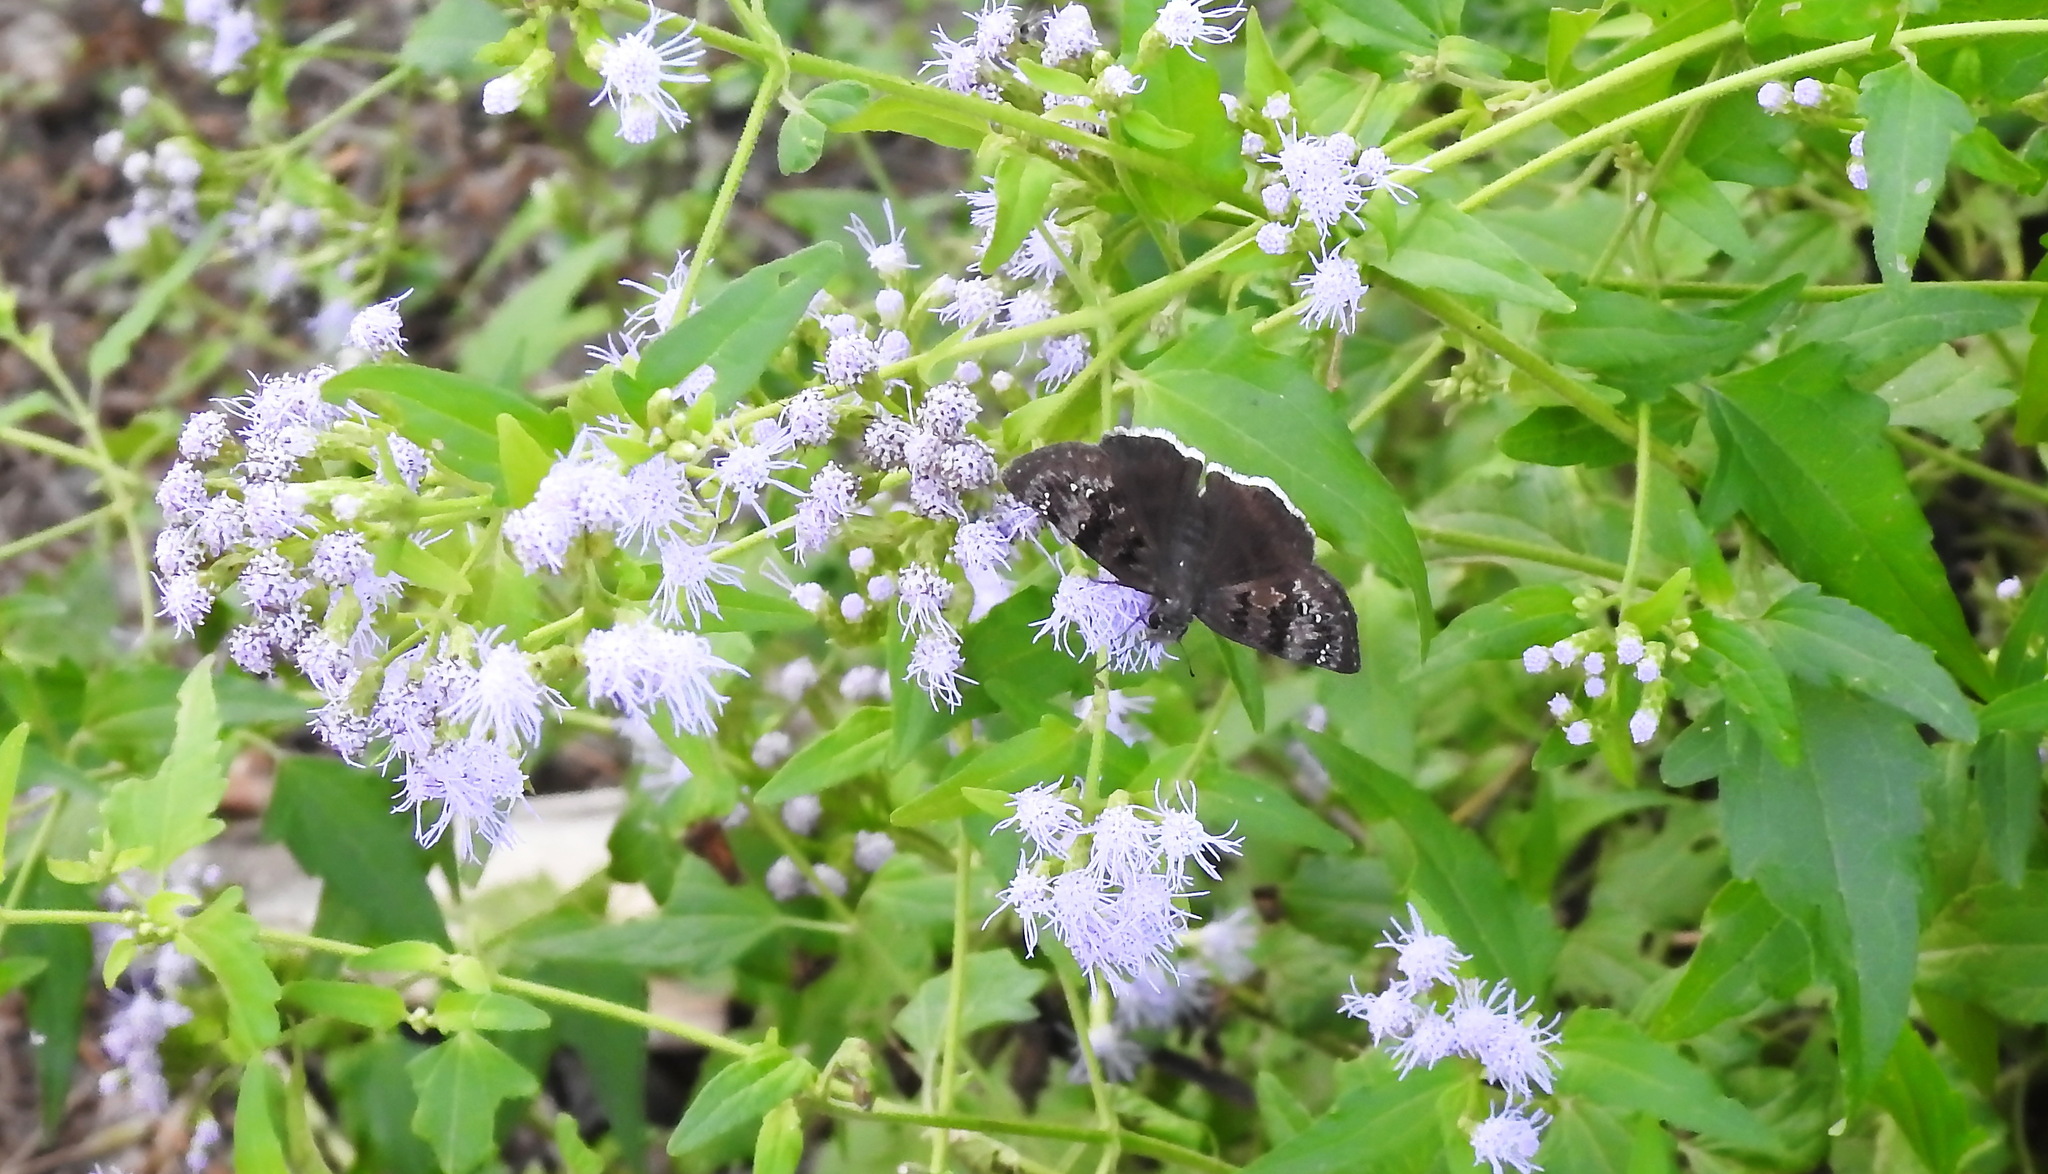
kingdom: Animalia
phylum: Arthropoda
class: Insecta
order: Lepidoptera
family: Hesperiidae
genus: Erynnis
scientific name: Erynnis tristis
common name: Mournful duskywing
